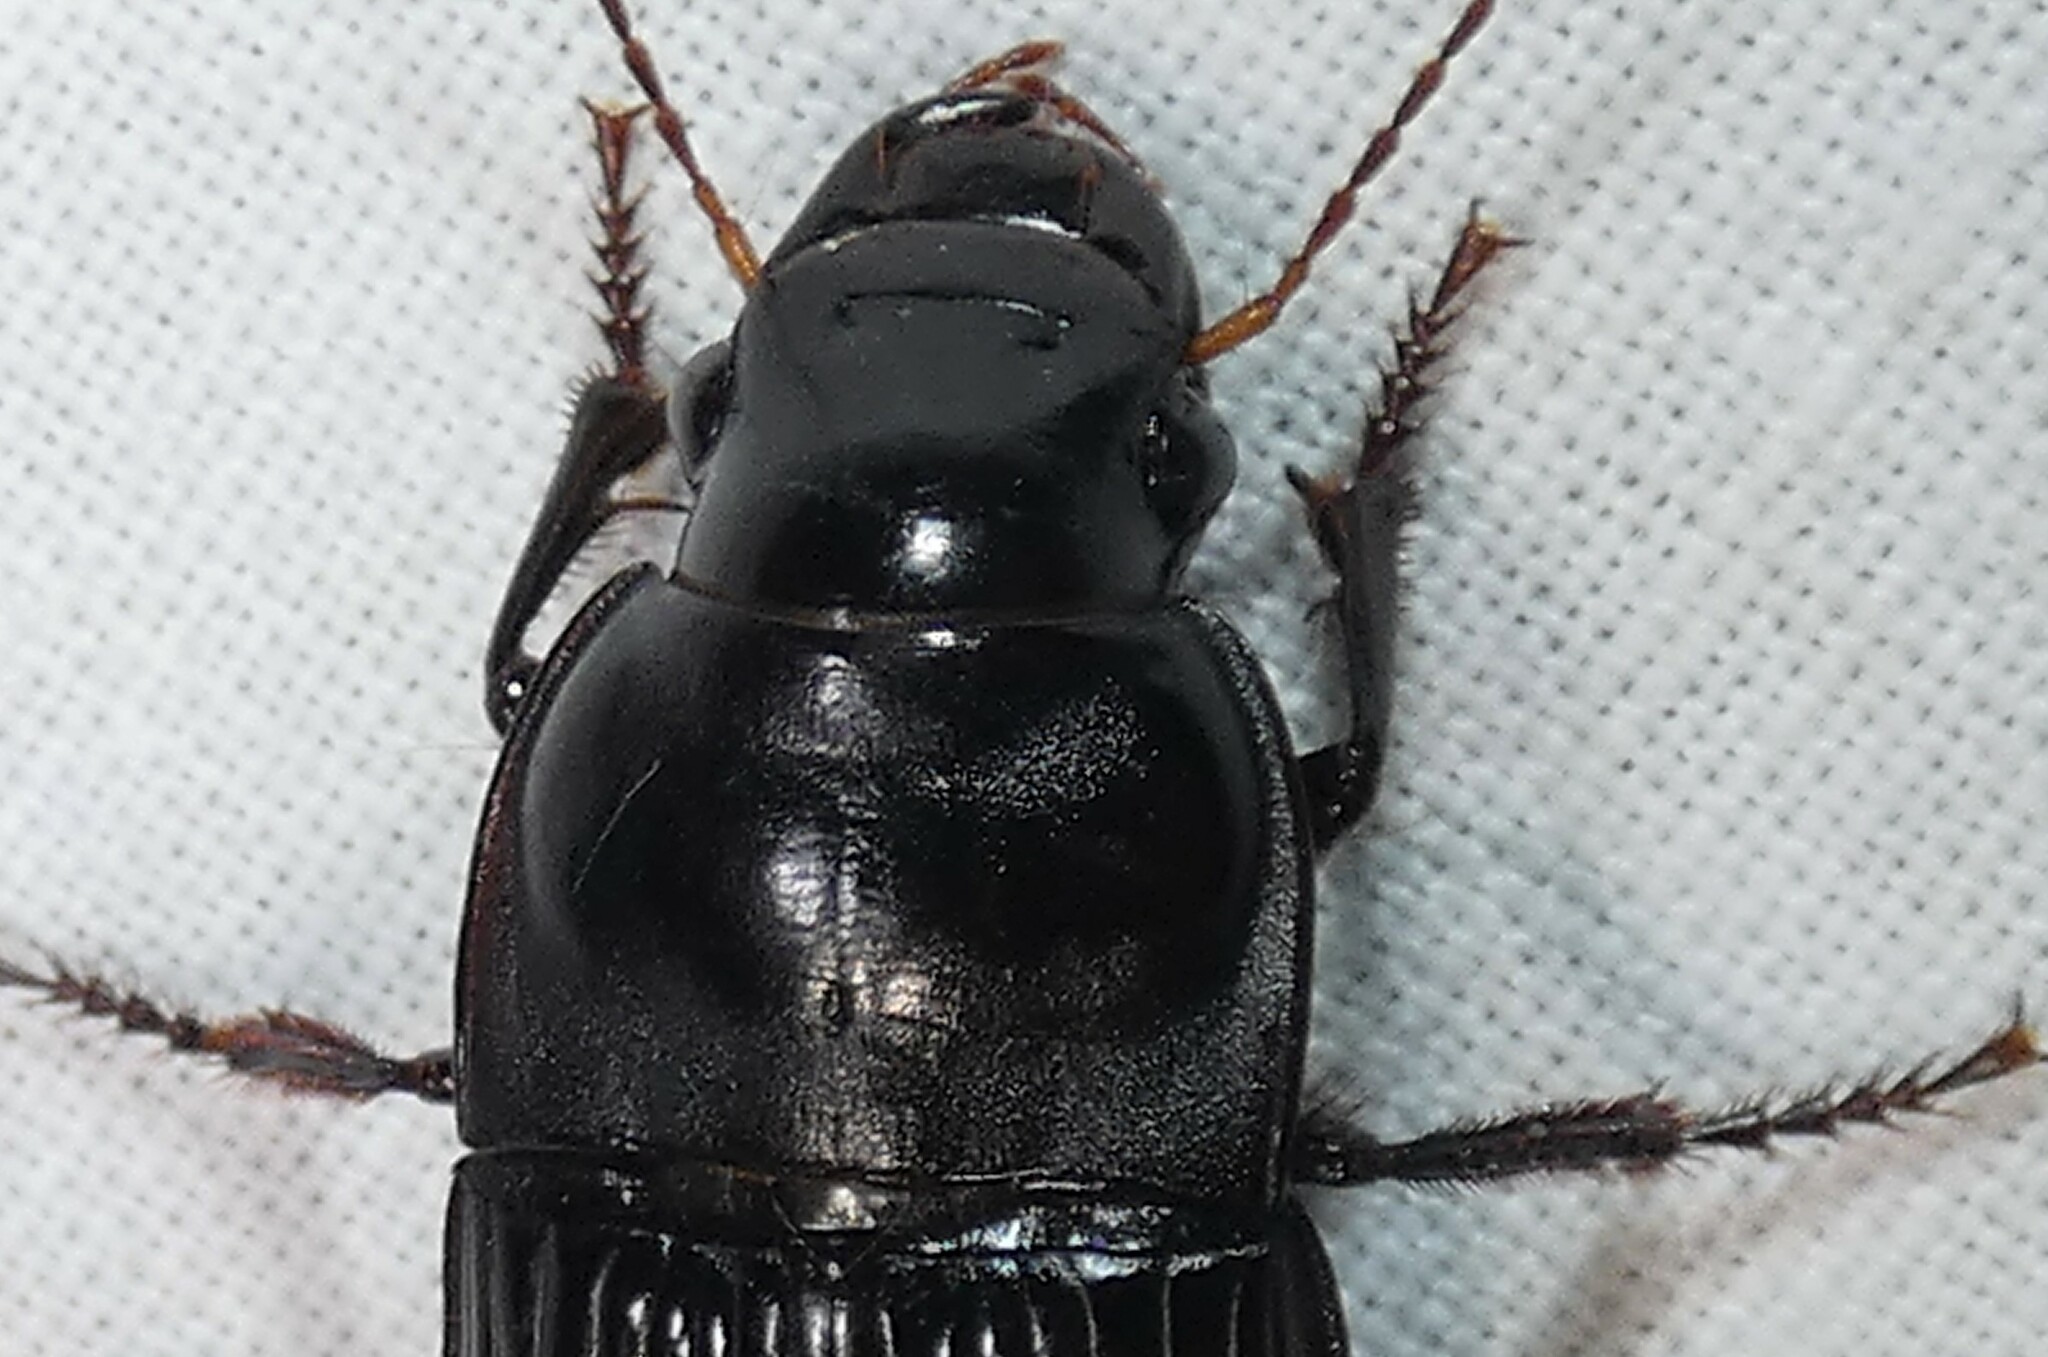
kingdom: Animalia
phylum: Arthropoda
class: Insecta
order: Coleoptera
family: Carabidae
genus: Harpalus
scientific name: Harpalus caliginosus
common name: Murky ground beetle
